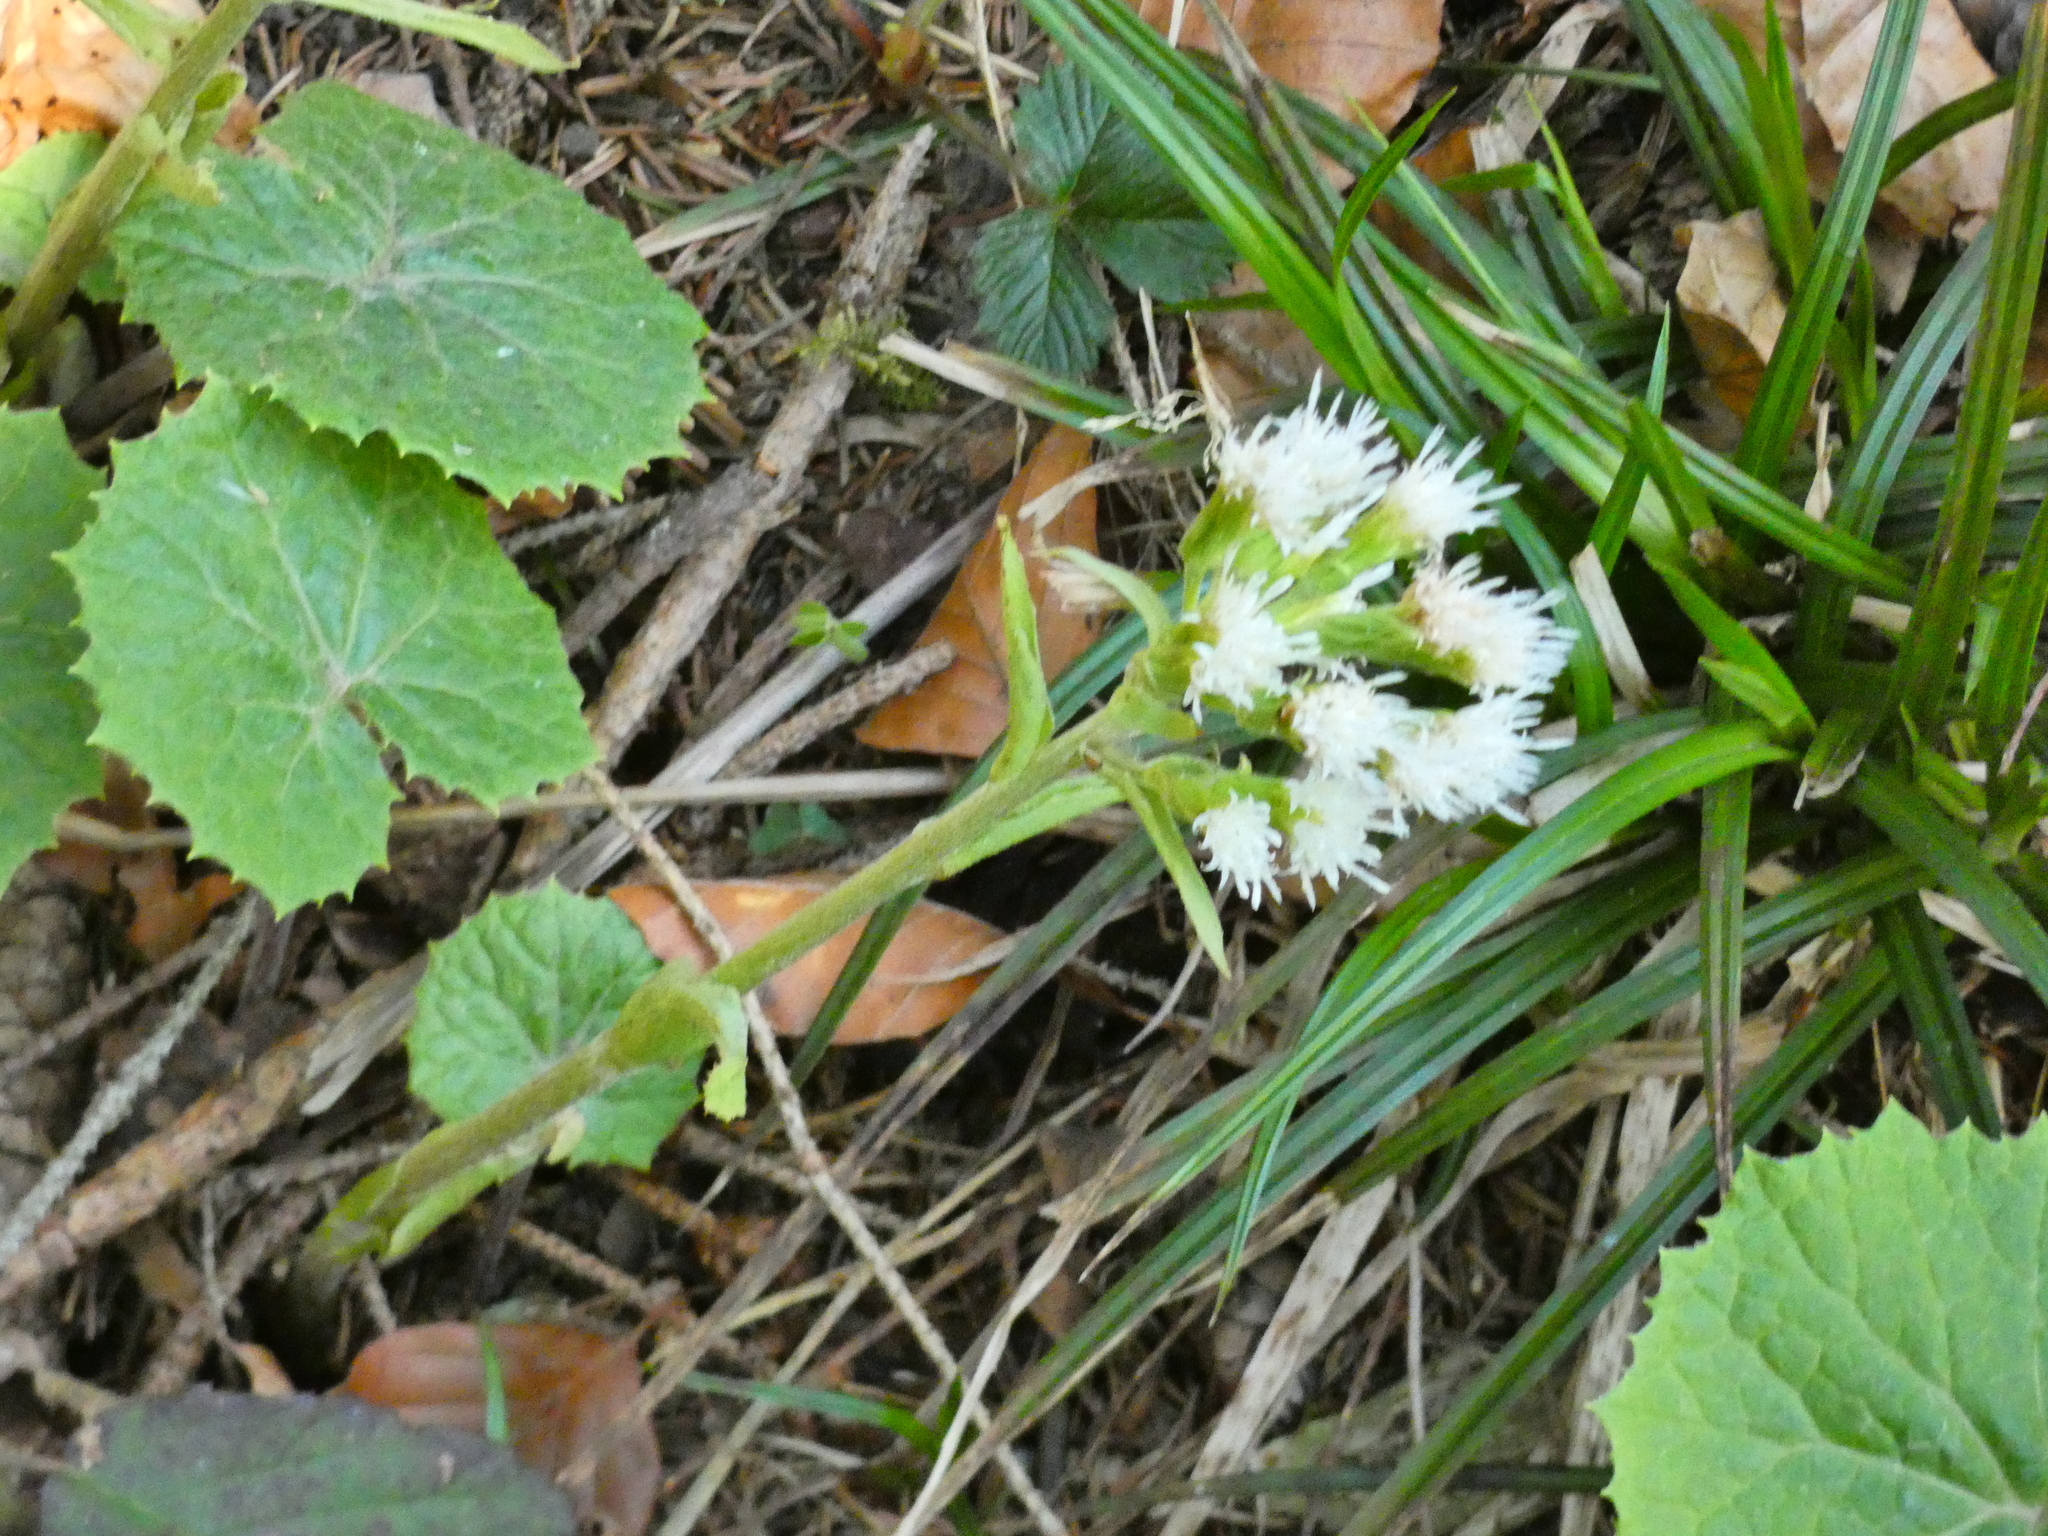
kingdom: Plantae
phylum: Tracheophyta
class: Magnoliopsida
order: Asterales
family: Asteraceae
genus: Petasites
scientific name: Petasites albus
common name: White butterbur
